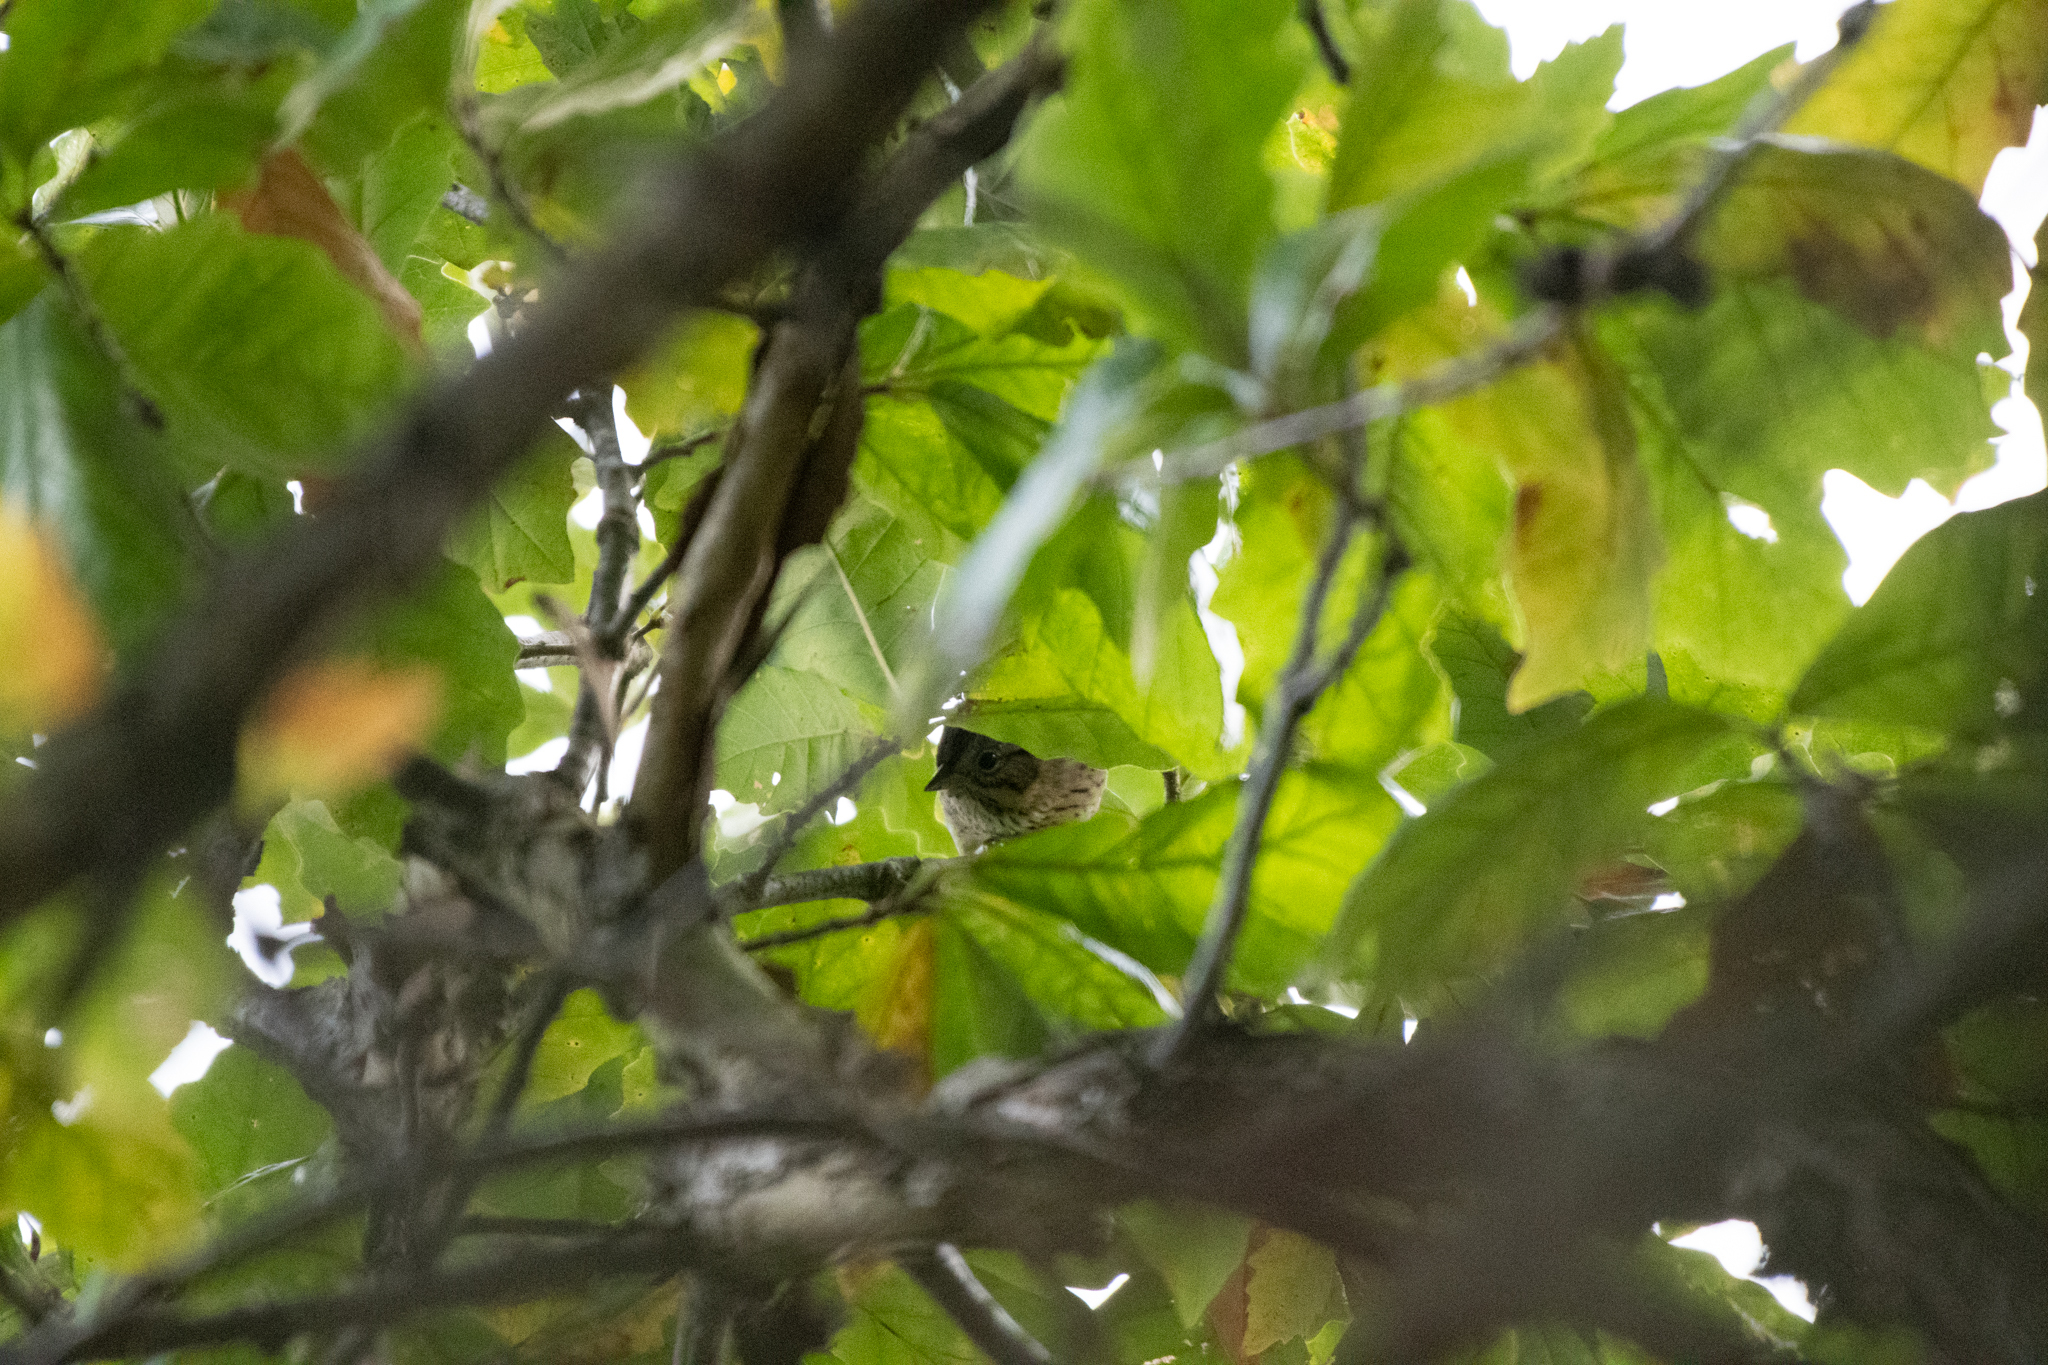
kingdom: Animalia
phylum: Chordata
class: Aves
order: Passeriformes
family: Passerellidae
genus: Melospiza
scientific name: Melospiza lincolnii
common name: Lincoln's sparrow
